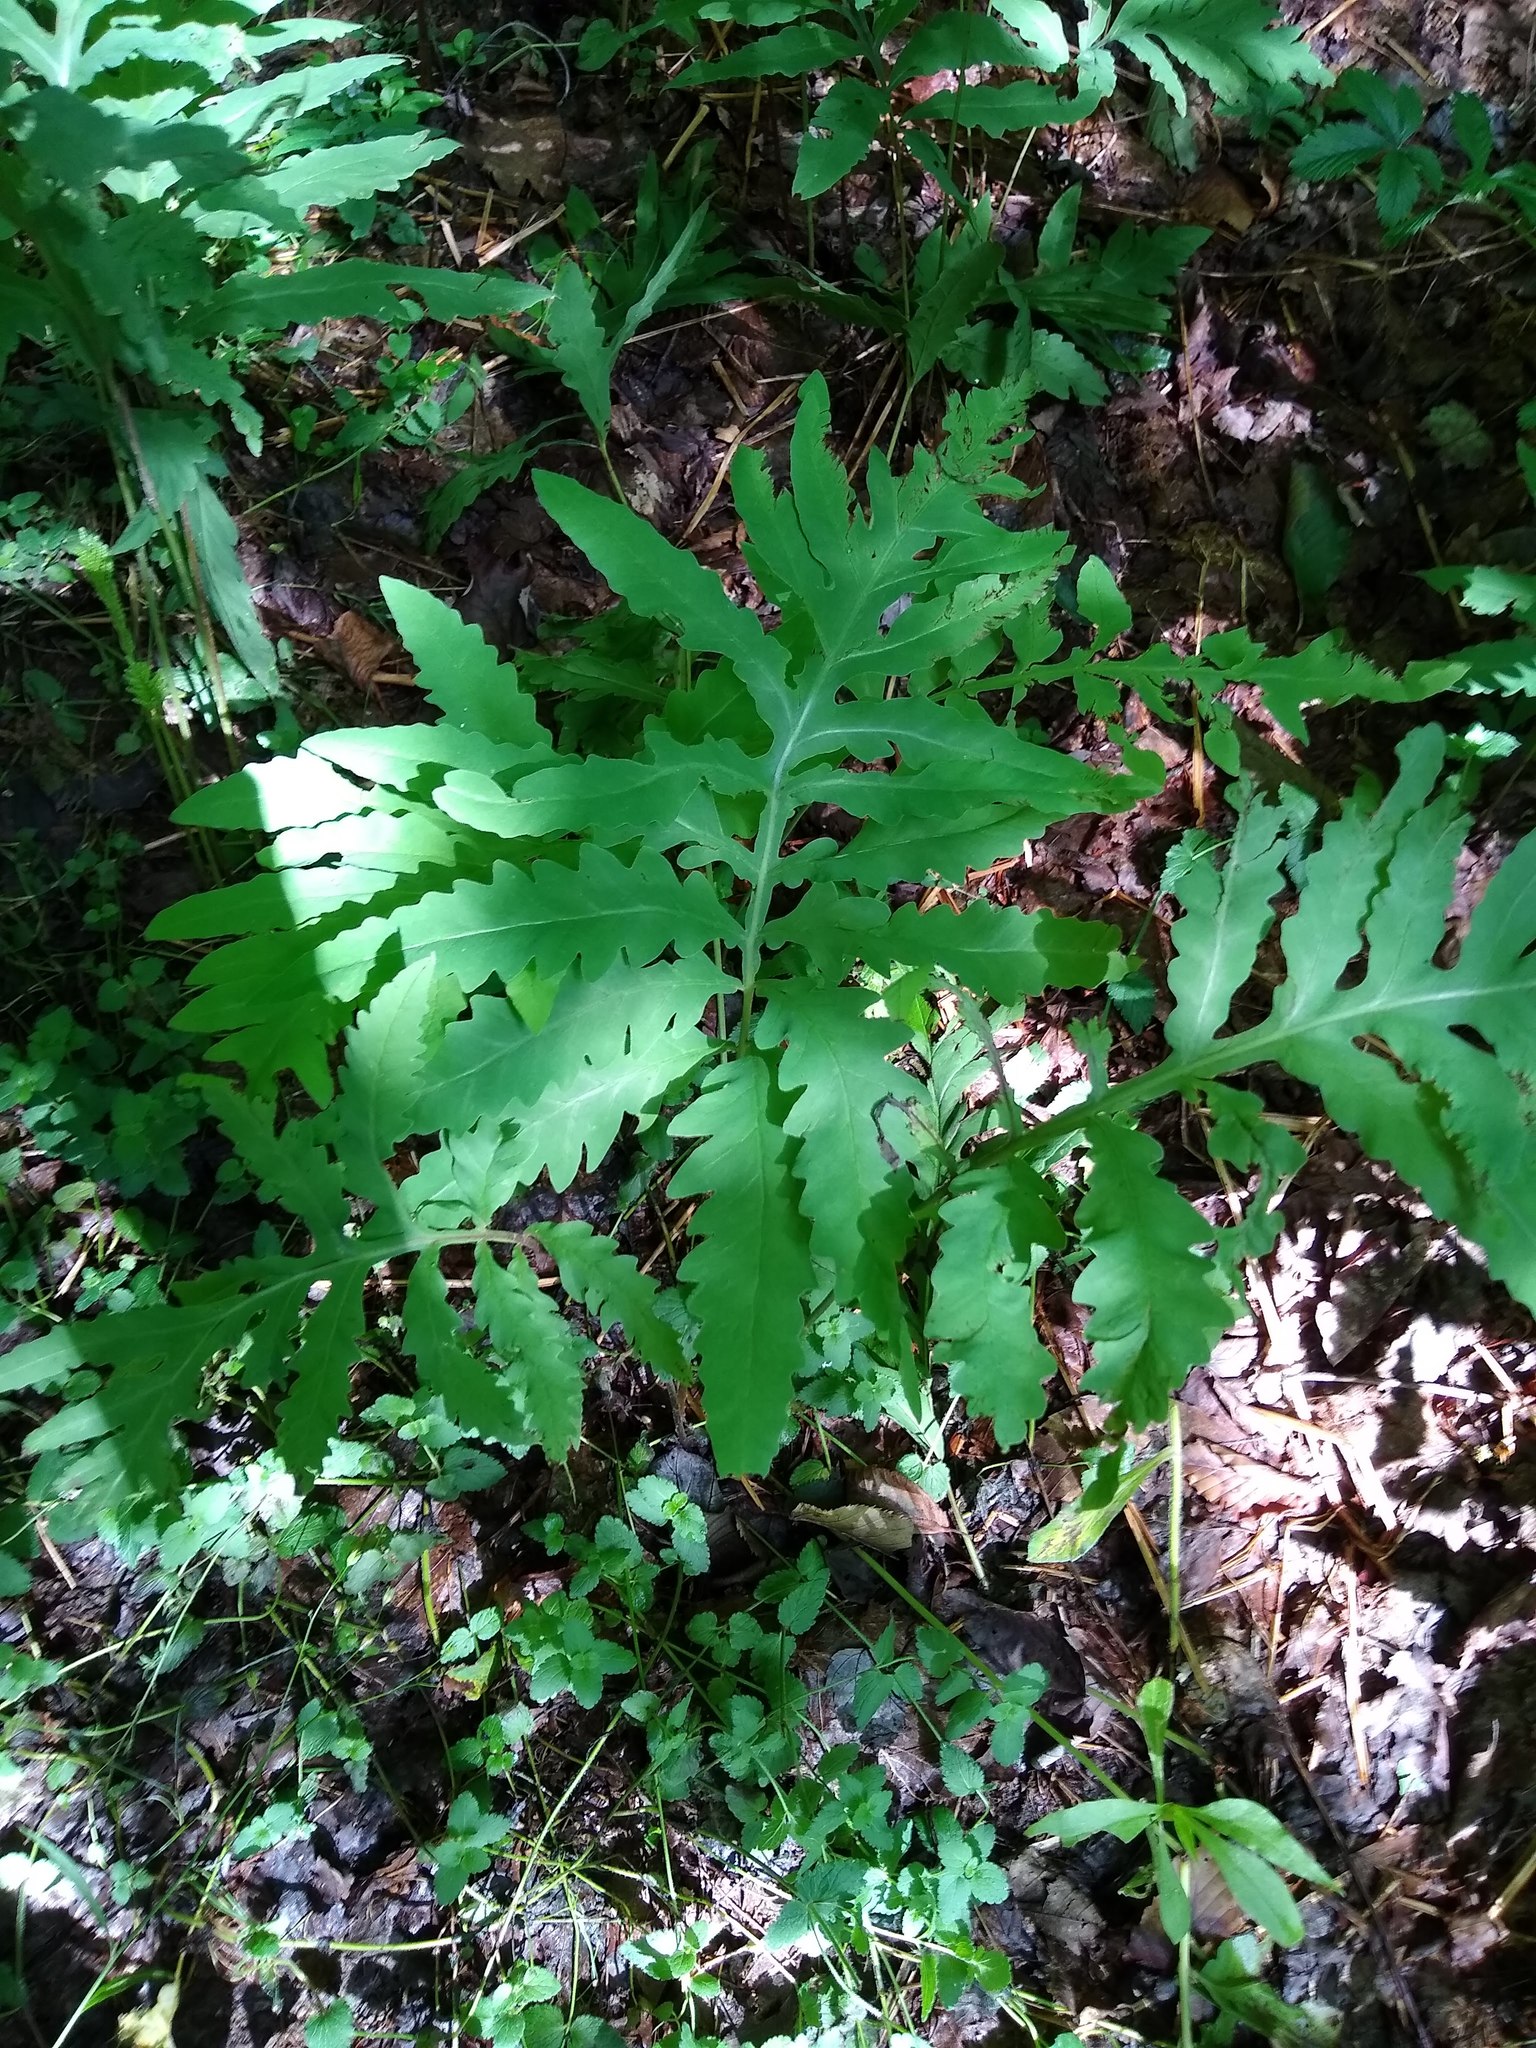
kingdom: Plantae
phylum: Tracheophyta
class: Polypodiopsida
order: Polypodiales
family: Onocleaceae
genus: Onoclea
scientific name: Onoclea sensibilis
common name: Sensitive fern
